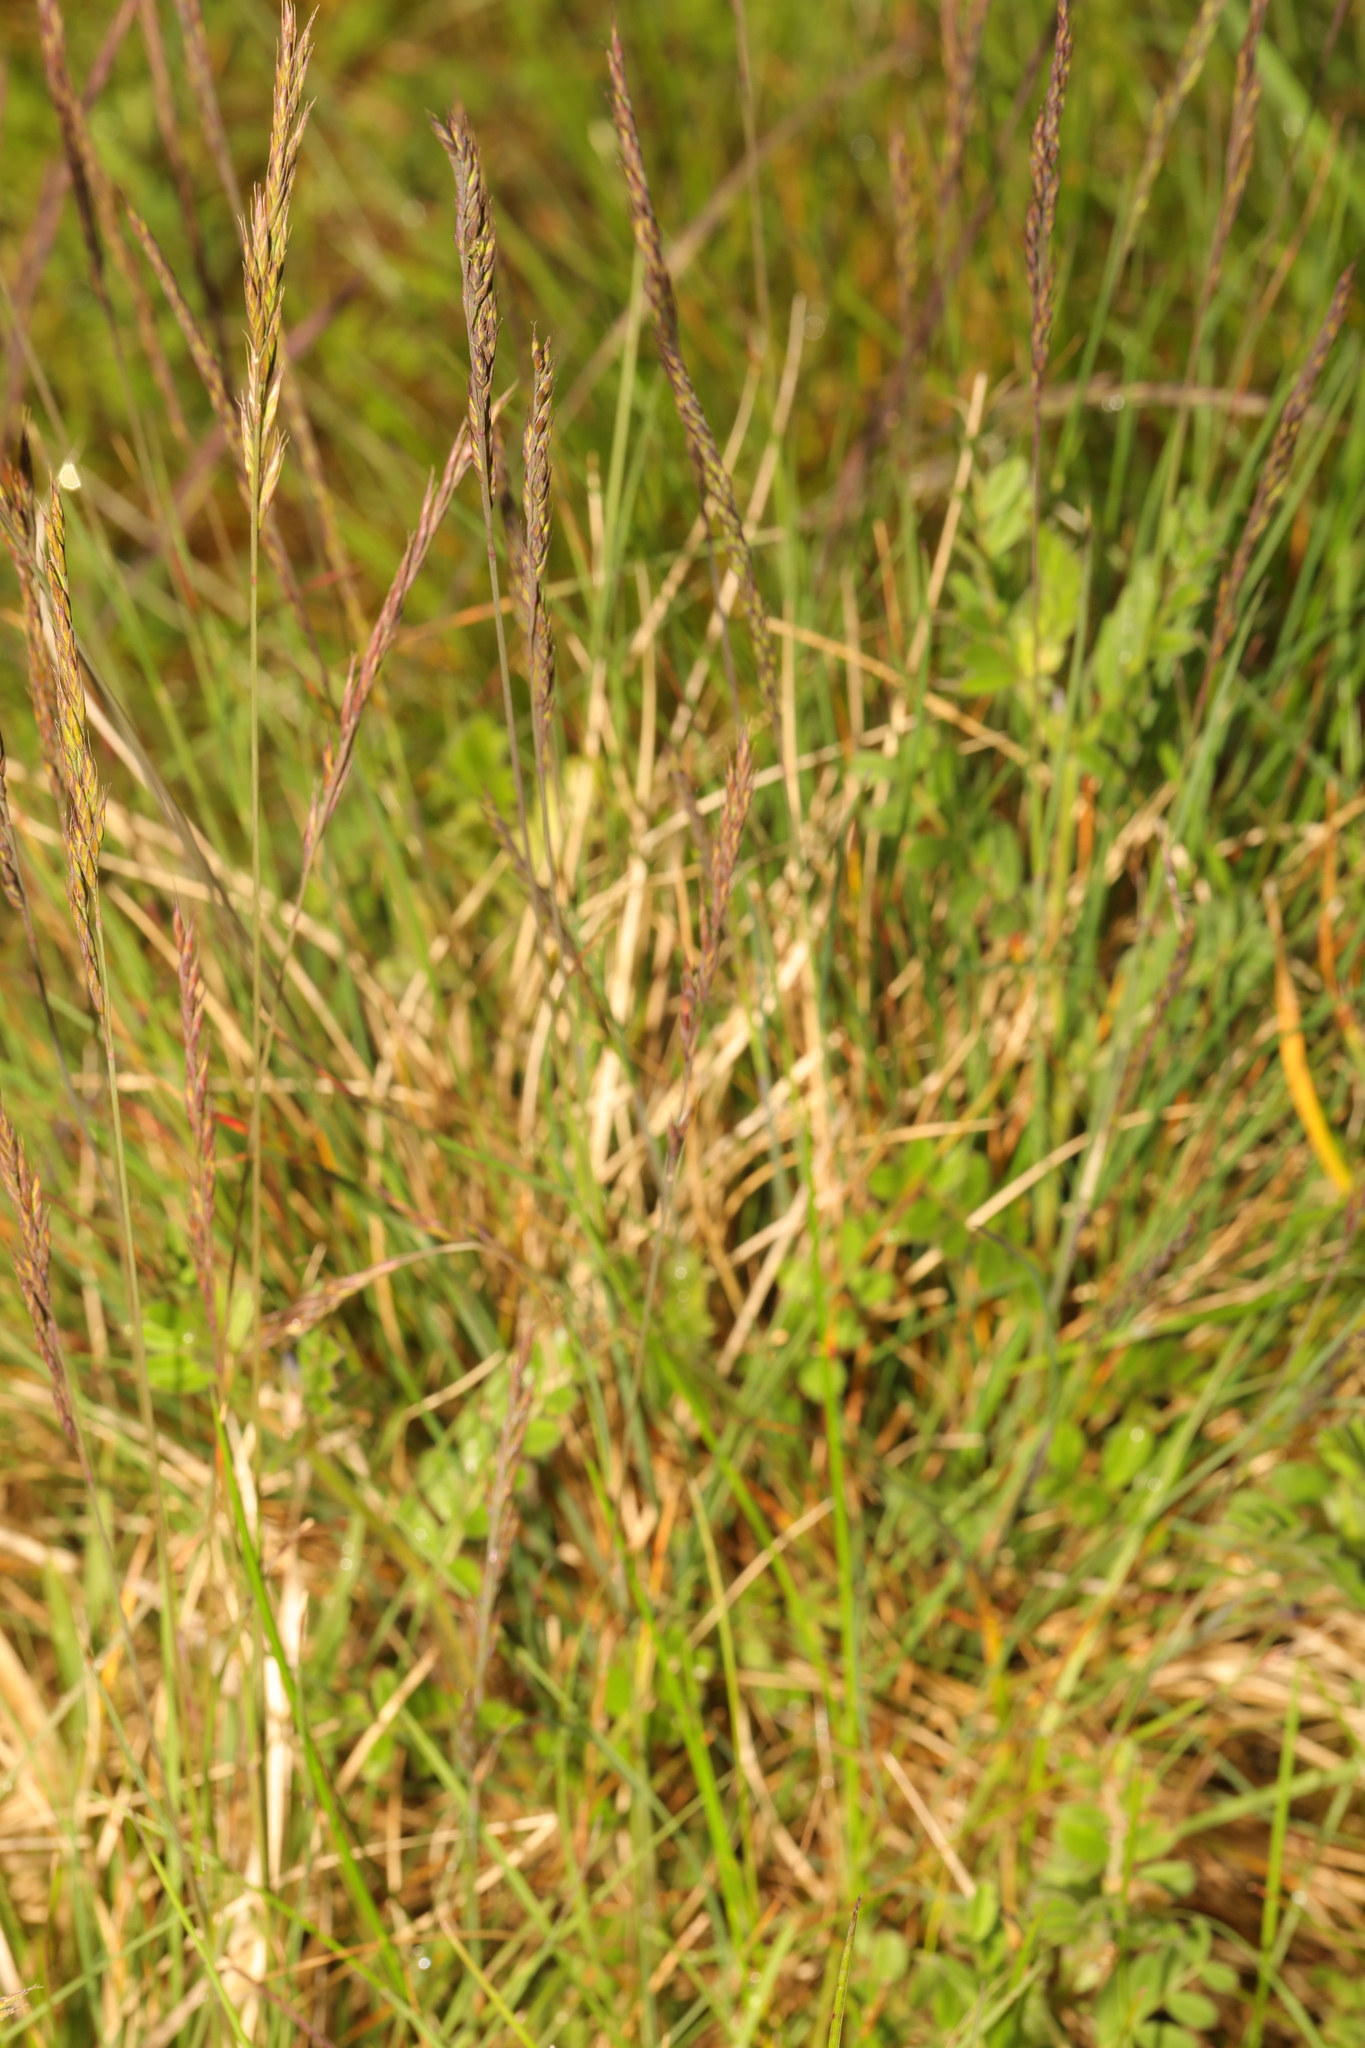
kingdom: Plantae
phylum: Tracheophyta
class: Liliopsida
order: Poales
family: Poaceae
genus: Festuca
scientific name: Festuca rubra
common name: Red fescue
